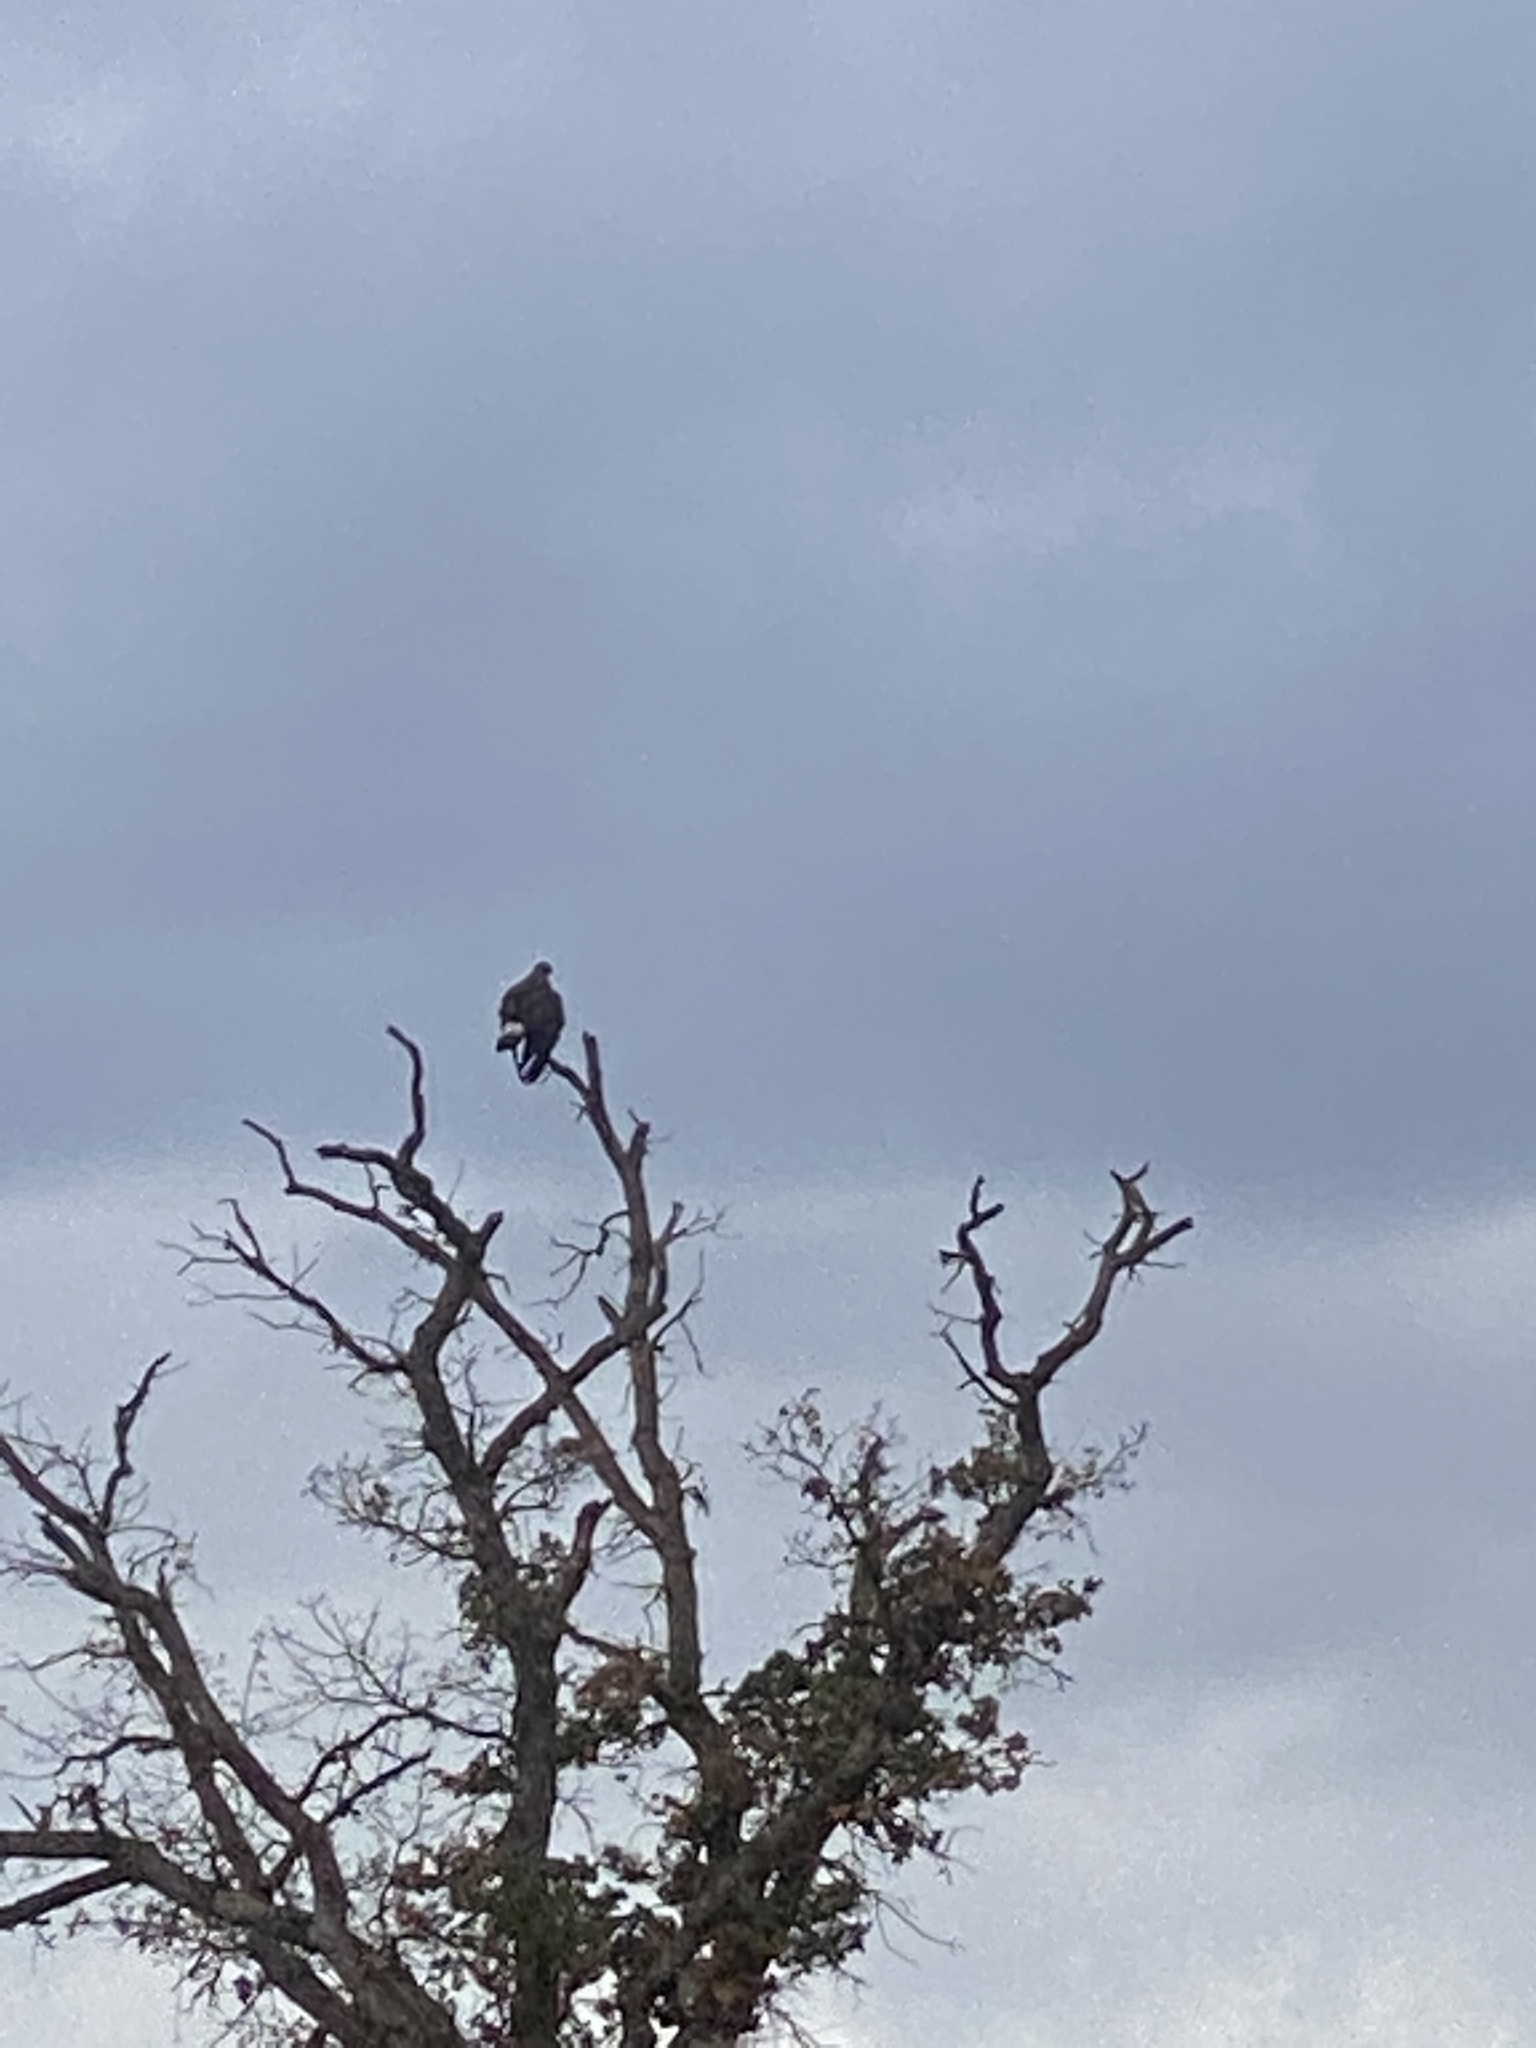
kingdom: Animalia
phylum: Chordata
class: Aves
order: Accipitriformes
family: Accipitridae
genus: Aquila
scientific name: Aquila chrysaetos
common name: Golden eagle
